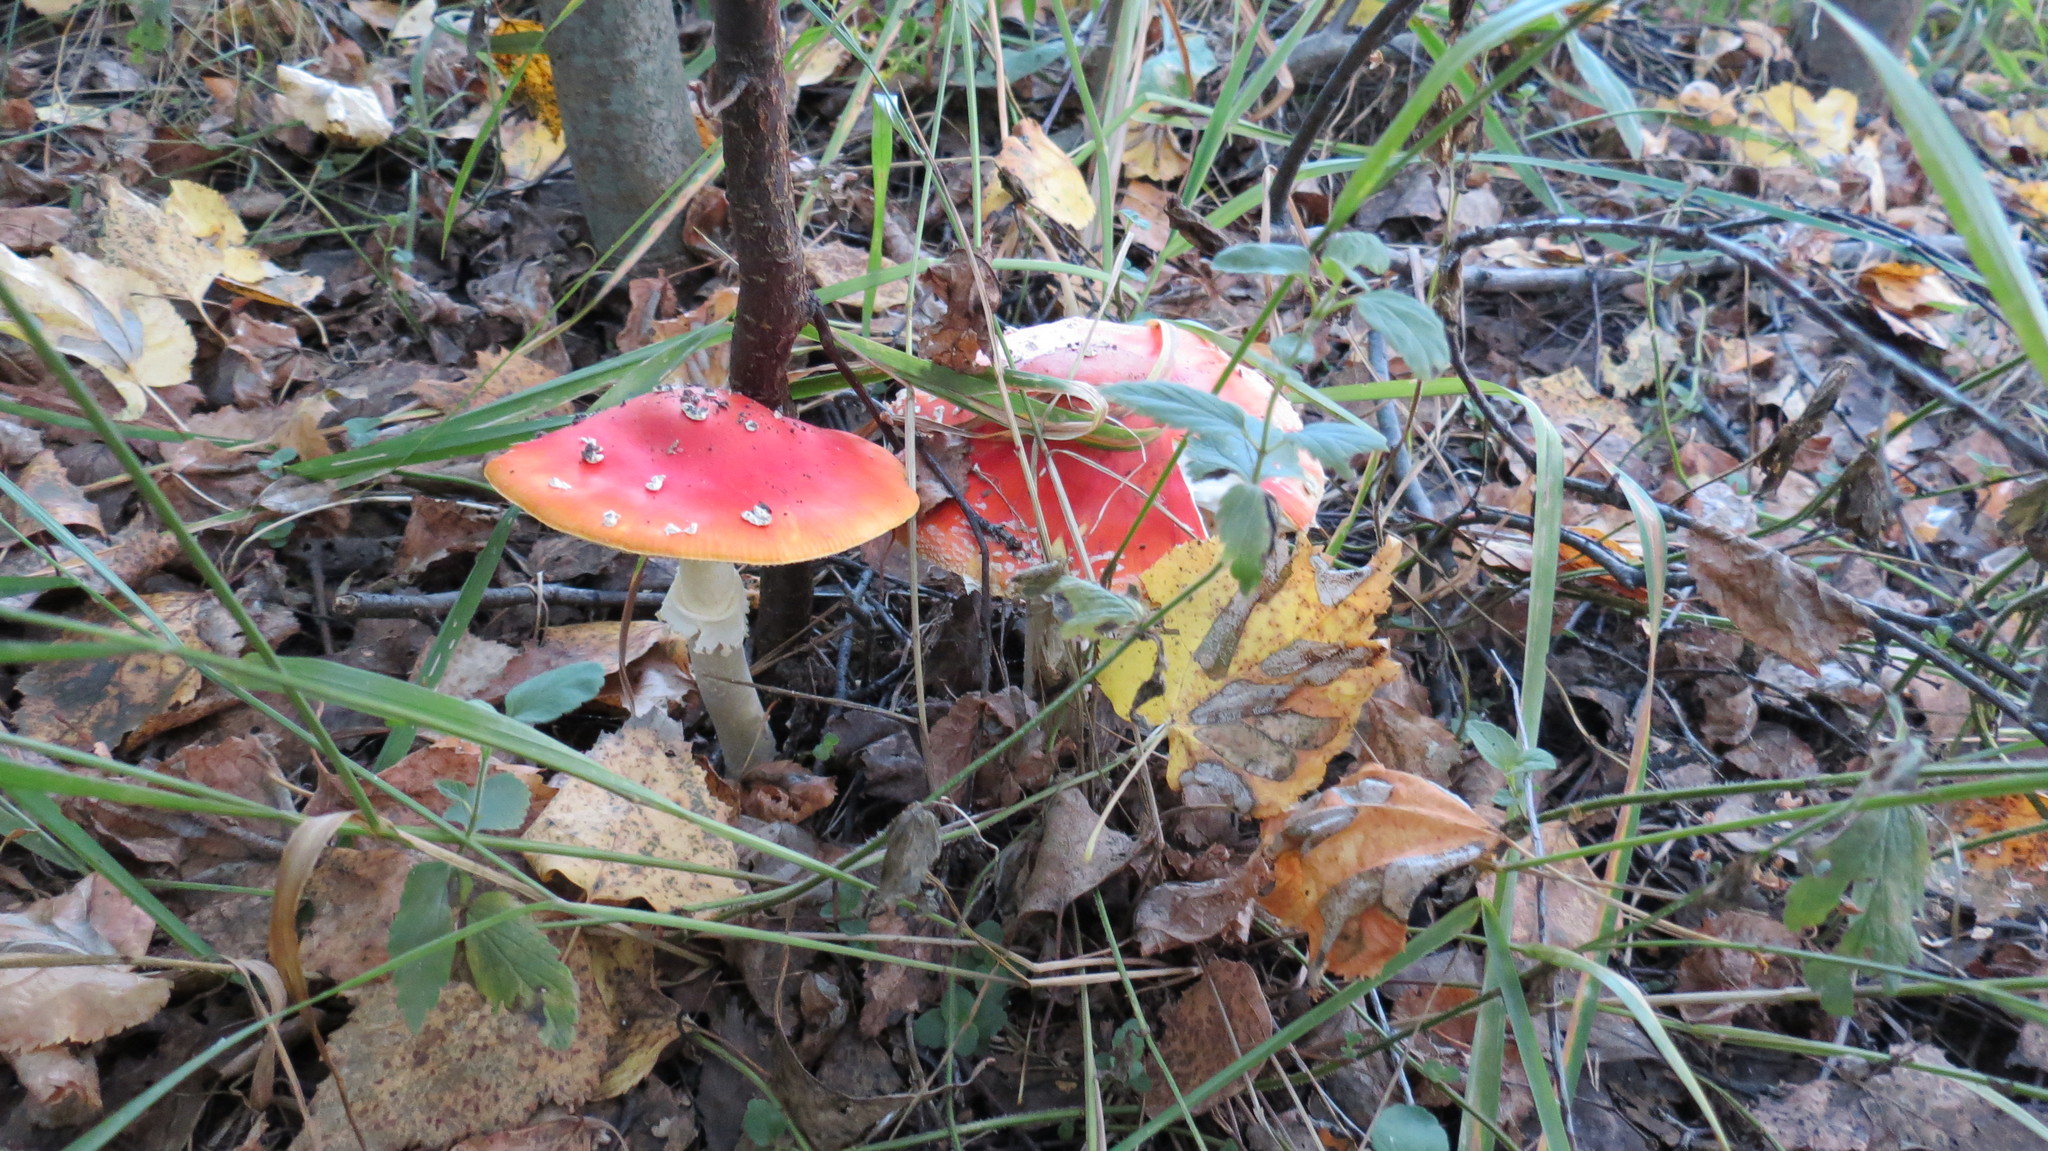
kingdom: Fungi
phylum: Basidiomycota
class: Agaricomycetes
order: Agaricales
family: Amanitaceae
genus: Amanita
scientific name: Amanita muscaria
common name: Fly agaric
